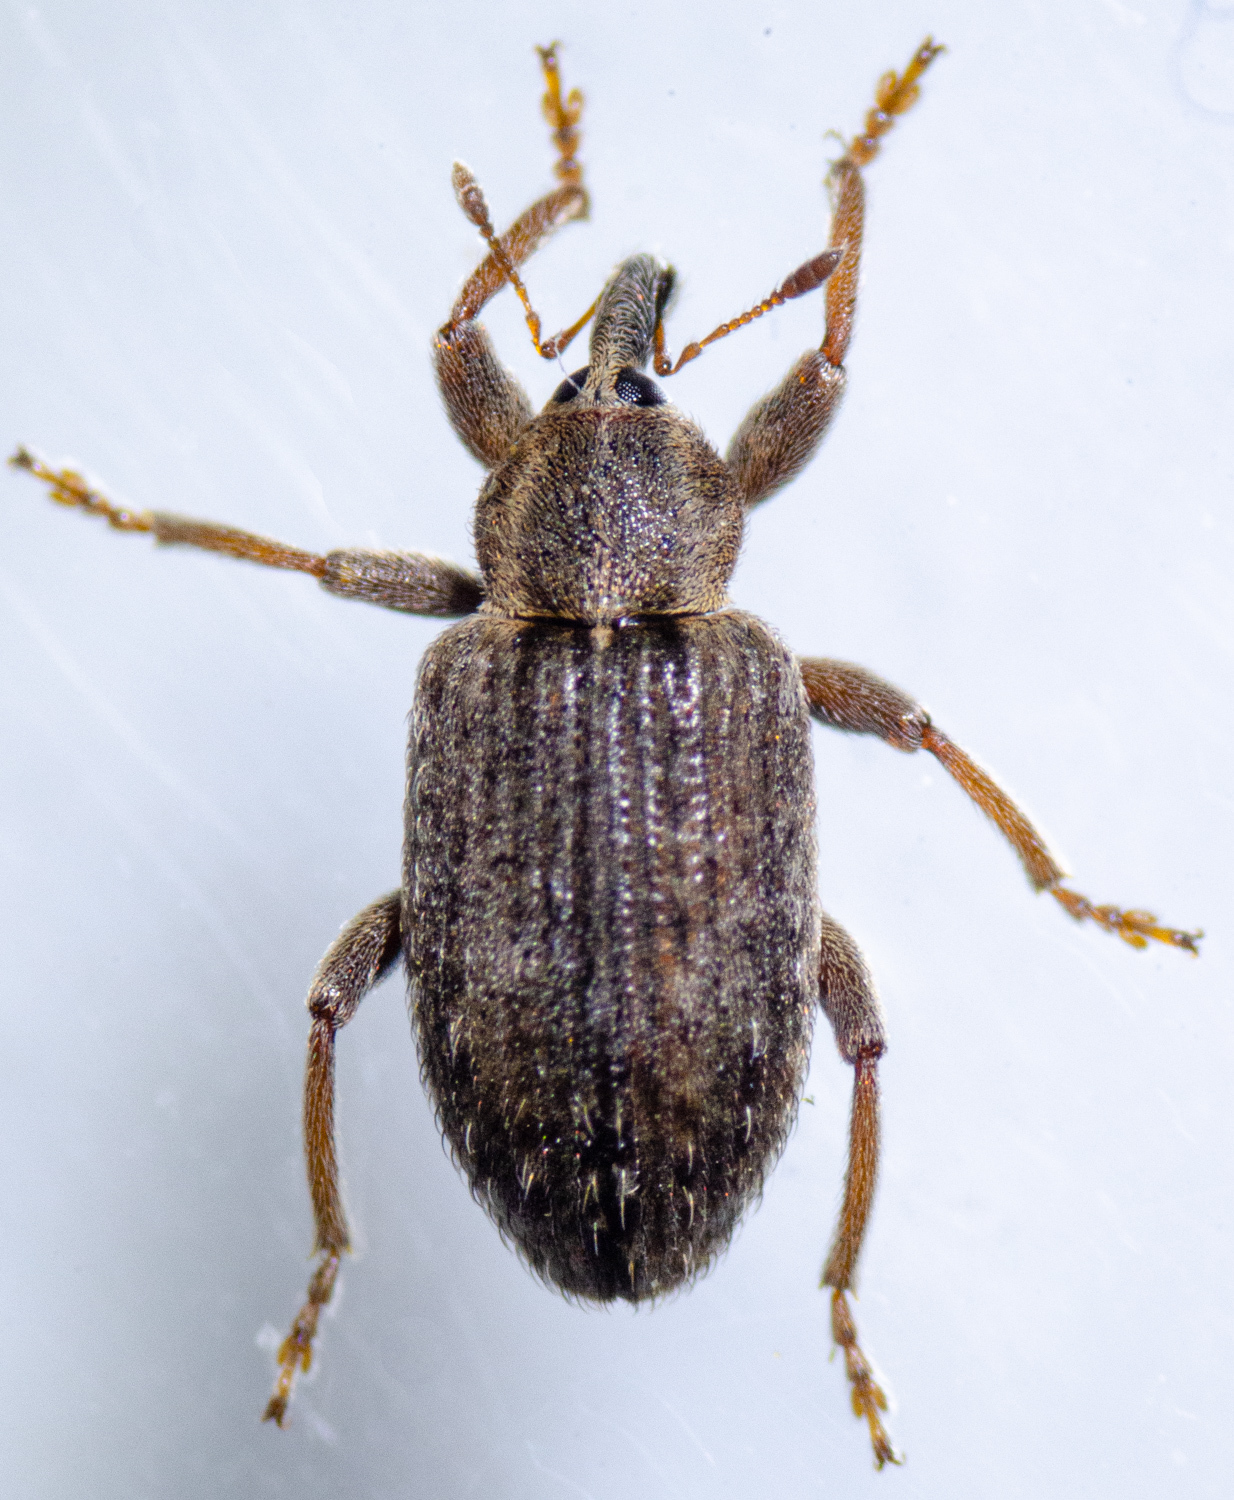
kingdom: Animalia
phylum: Arthropoda
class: Insecta
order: Coleoptera
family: Curculionidae
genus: Hypera
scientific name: Hypera postica
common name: Weevil
